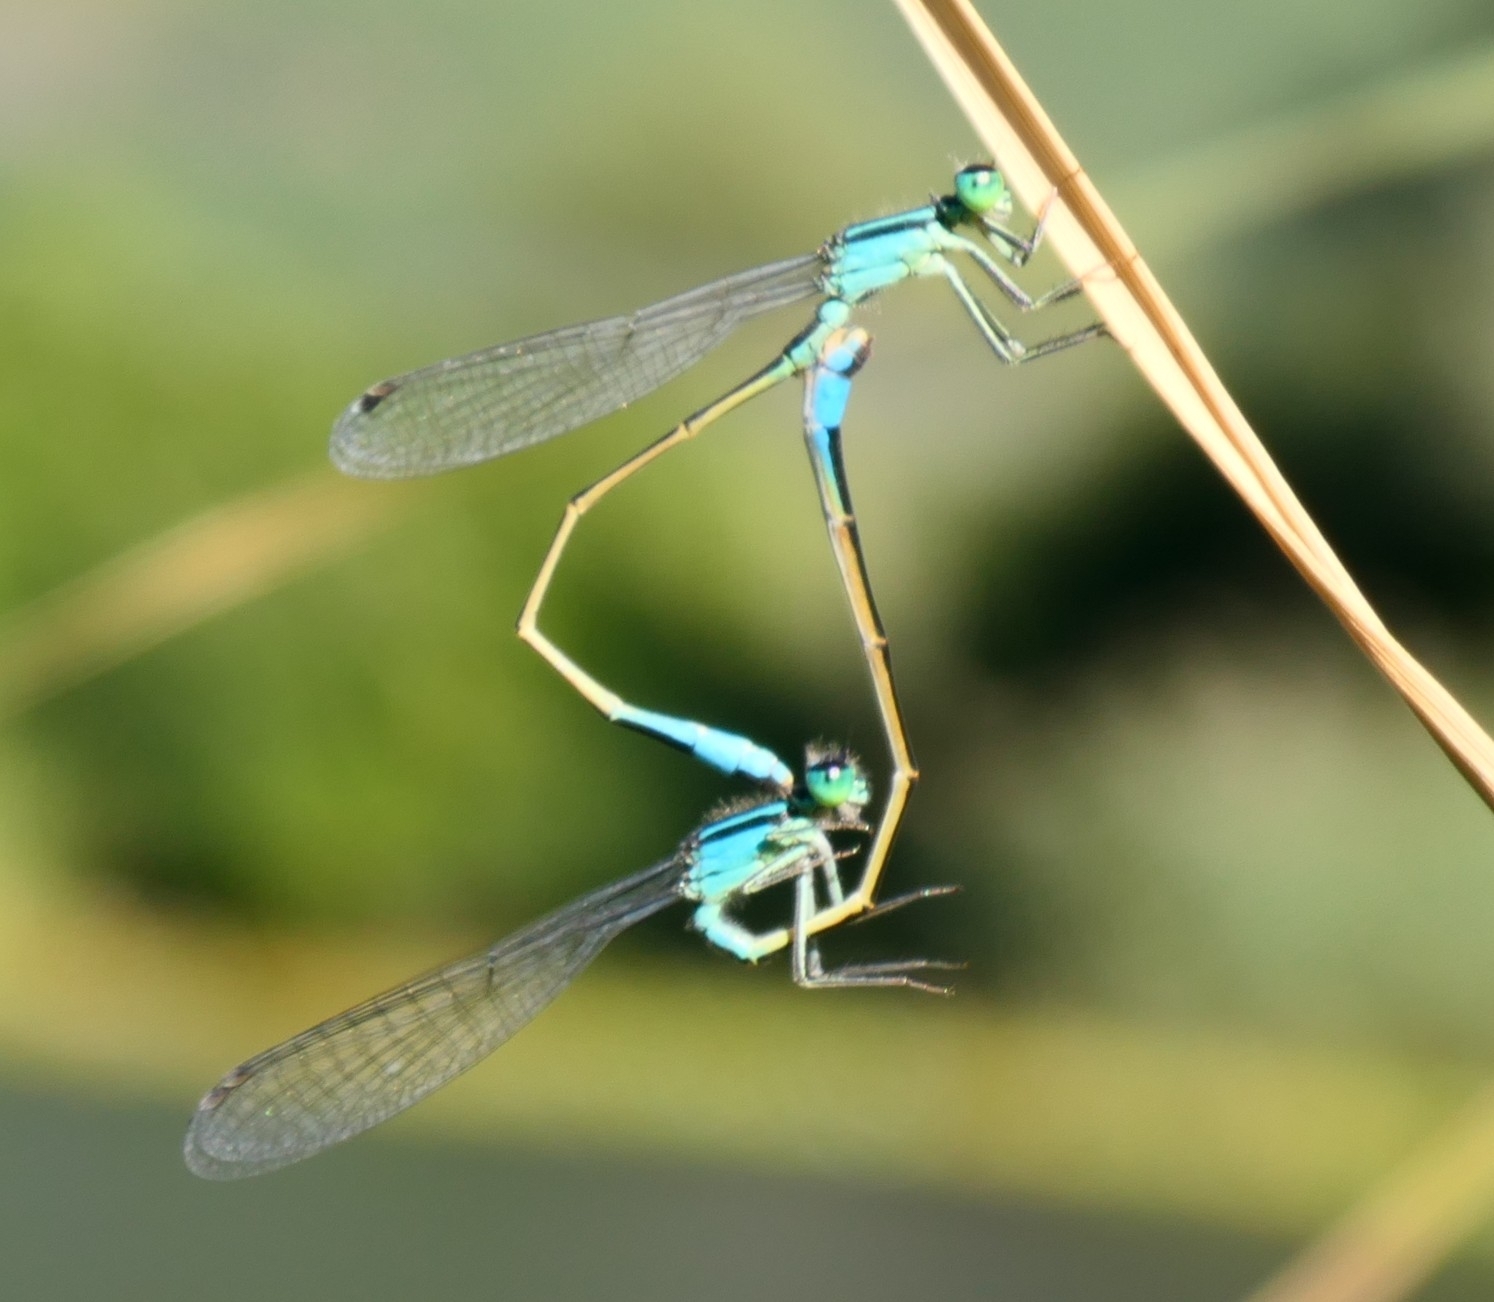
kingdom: Animalia
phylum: Arthropoda
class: Insecta
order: Odonata
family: Coenagrionidae
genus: Ischnura
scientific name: Ischnura elegans
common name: Blue-tailed damselfly
